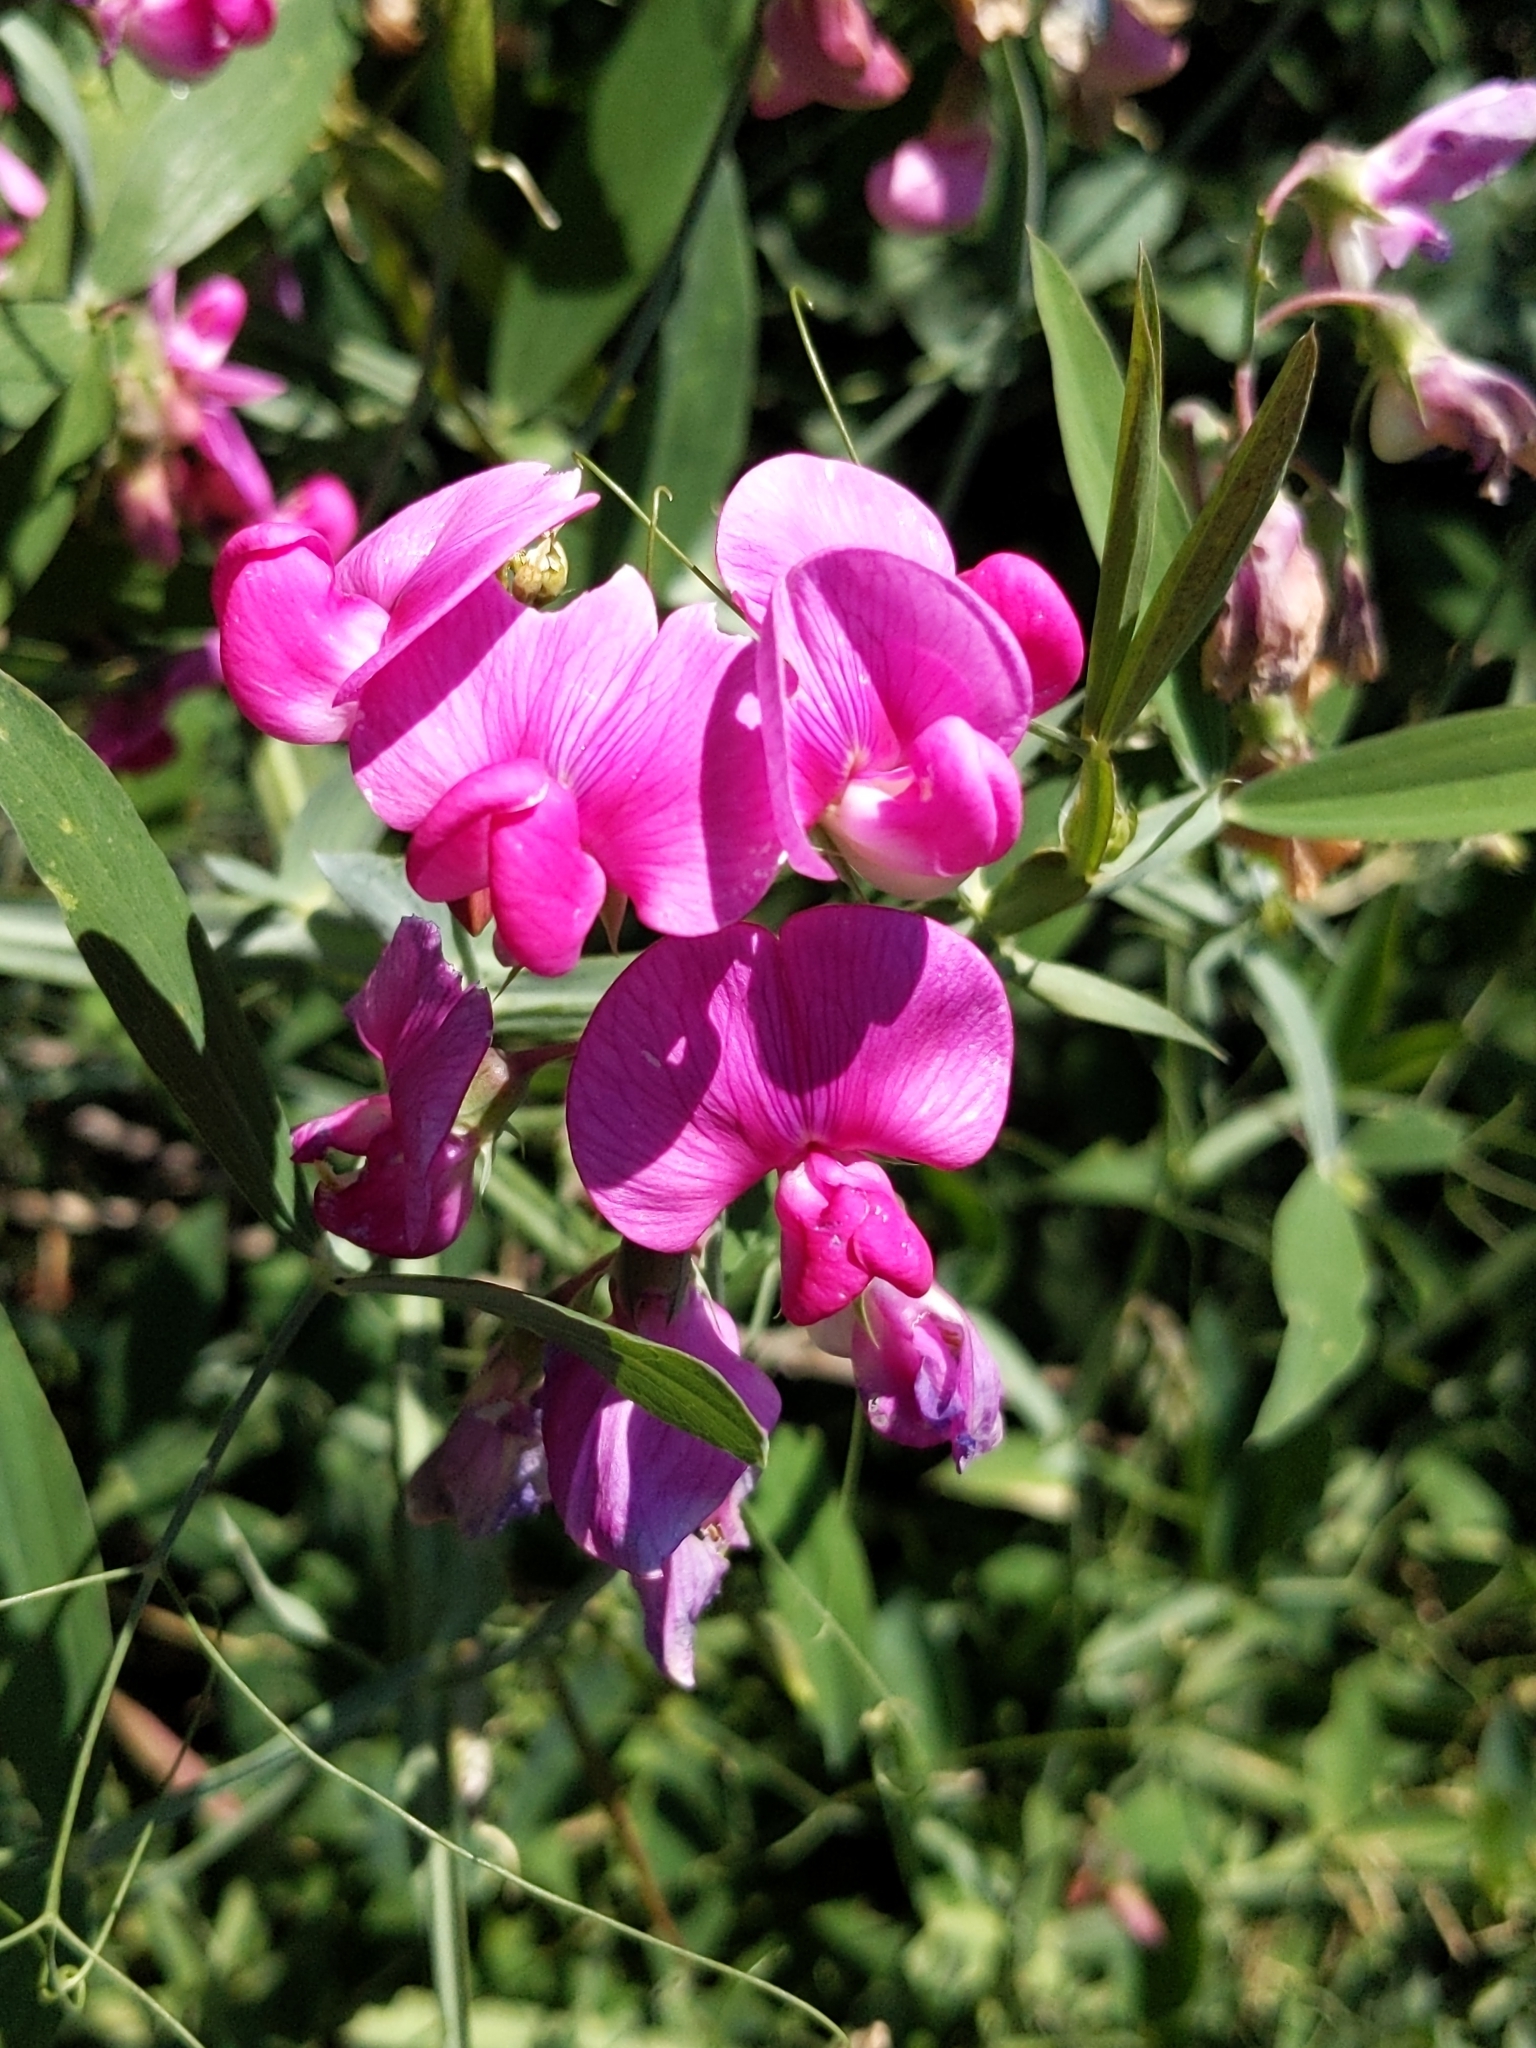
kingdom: Plantae
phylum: Tracheophyta
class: Magnoliopsida
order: Fabales
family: Fabaceae
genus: Lathyrus
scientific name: Lathyrus latifolius
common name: Perennial pea
